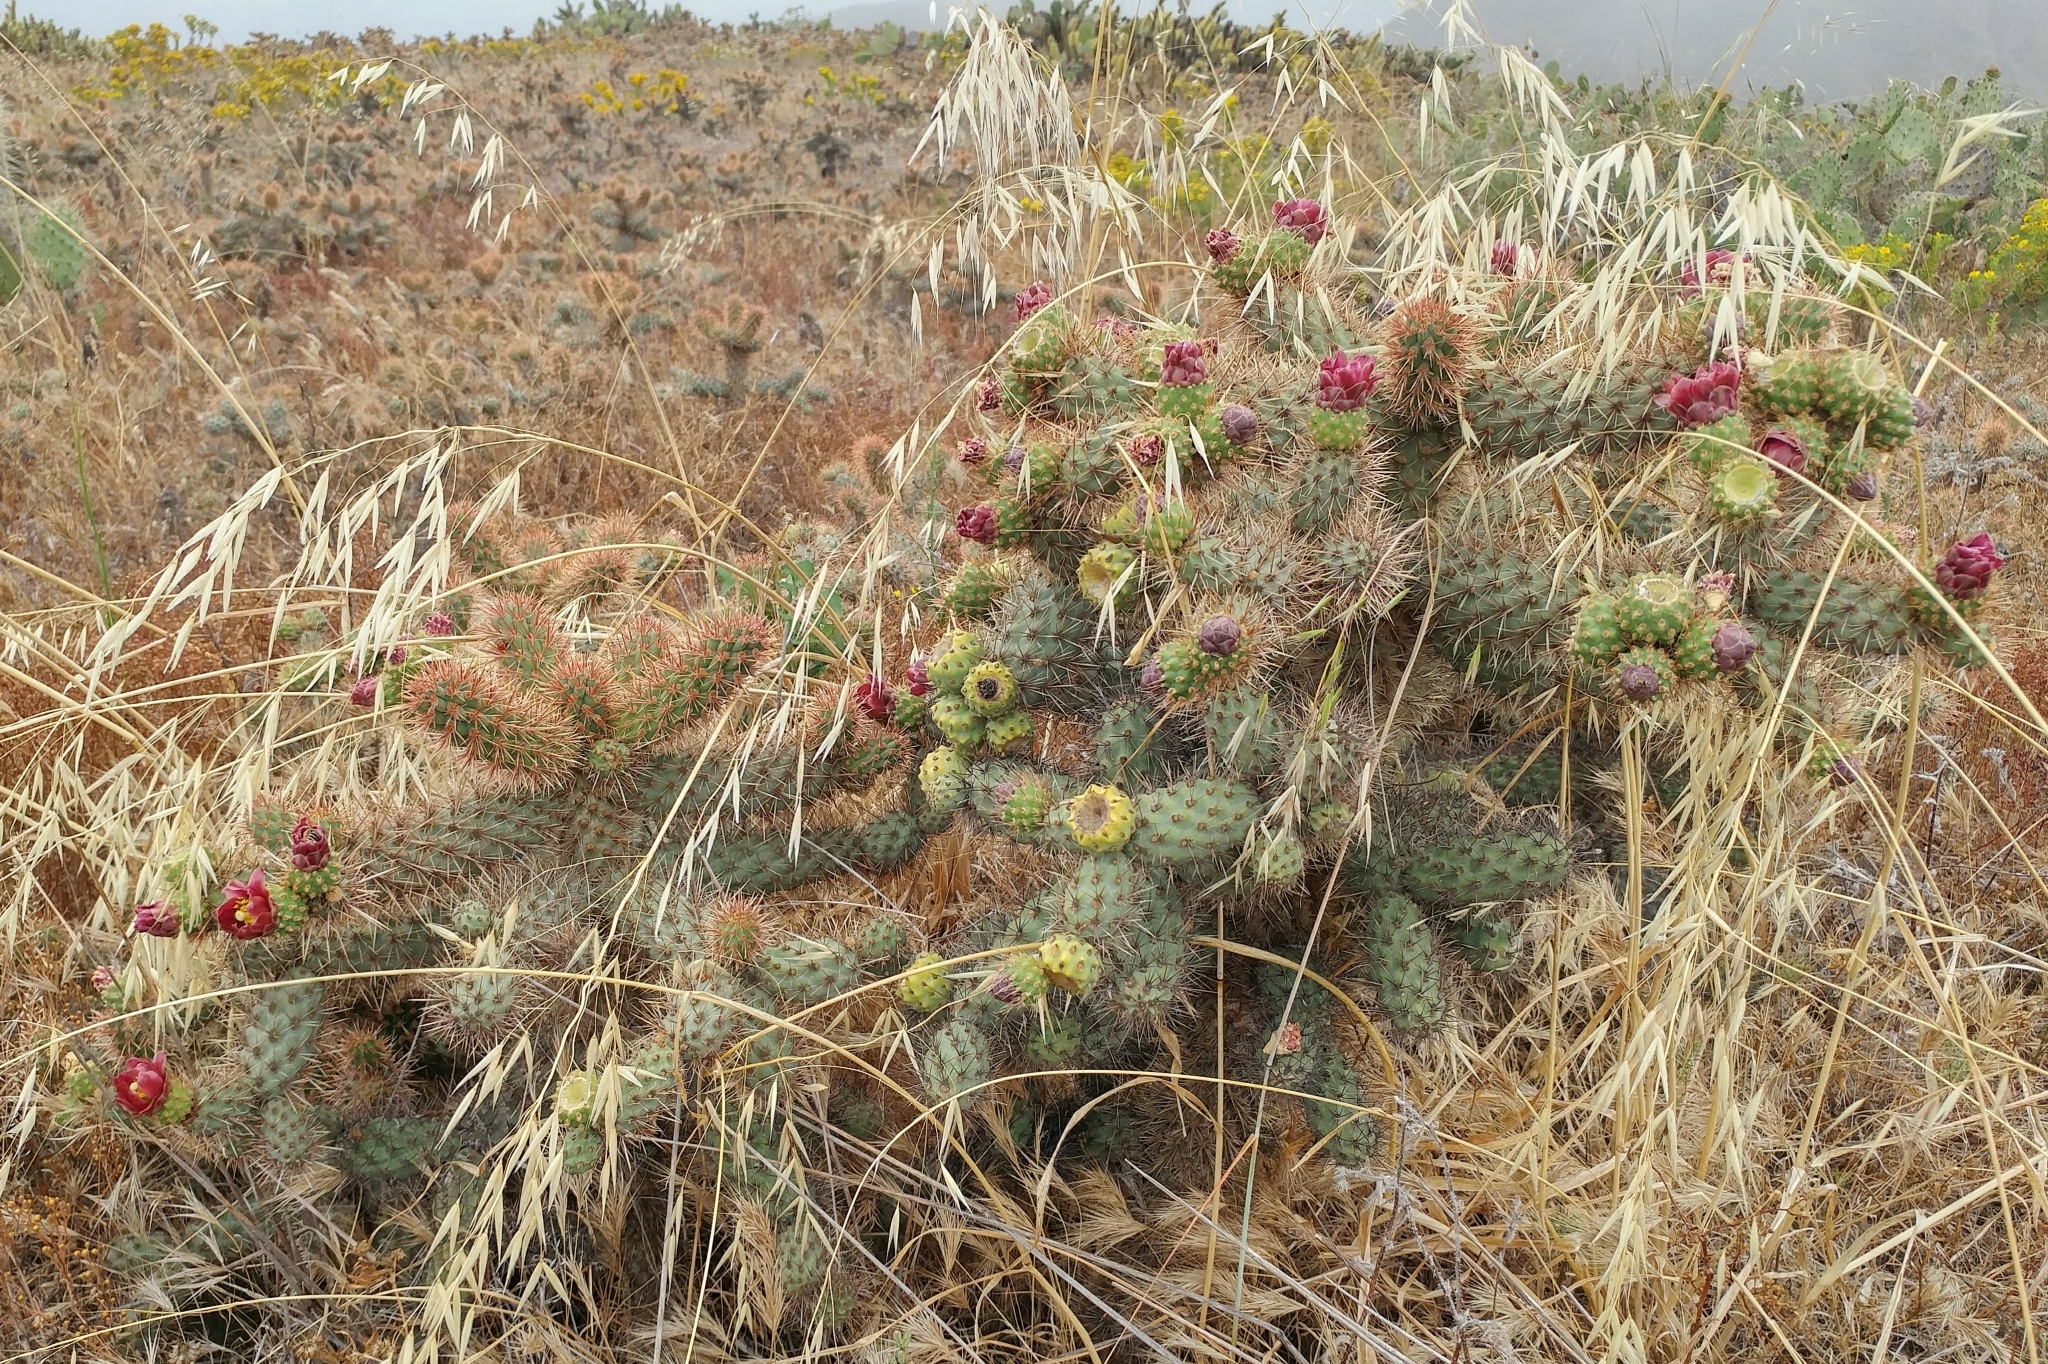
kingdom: Plantae
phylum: Tracheophyta
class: Magnoliopsida
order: Caryophyllales
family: Cactaceae
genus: Cylindropuntia
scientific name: Cylindropuntia prolifera
